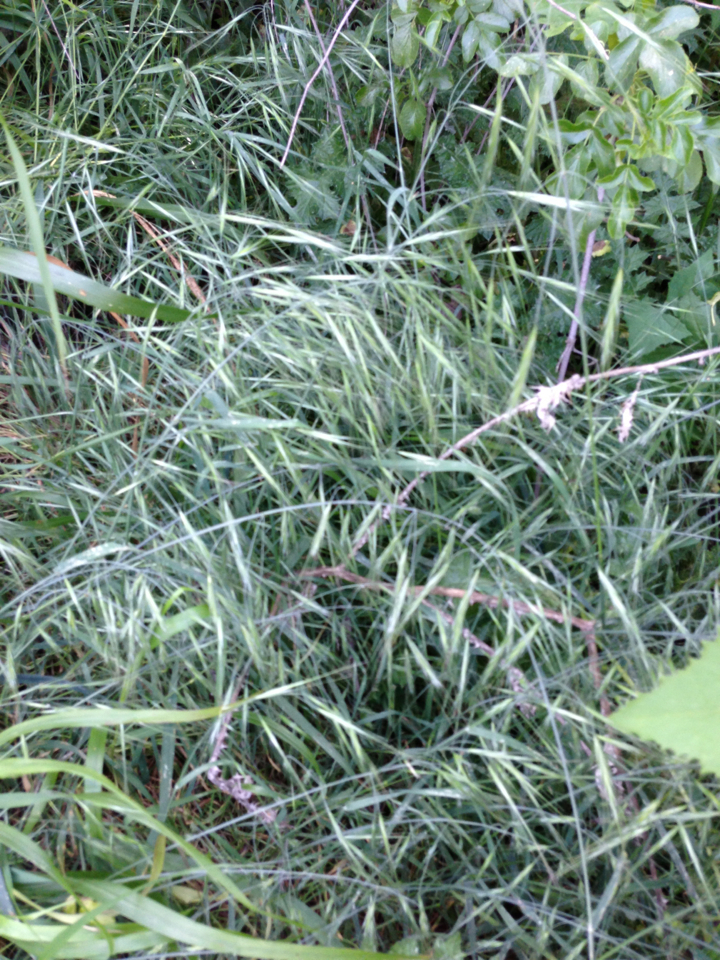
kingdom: Plantae
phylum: Tracheophyta
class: Liliopsida
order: Poales
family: Poaceae
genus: Bromus
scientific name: Bromus diandrus
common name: Ripgut brome
